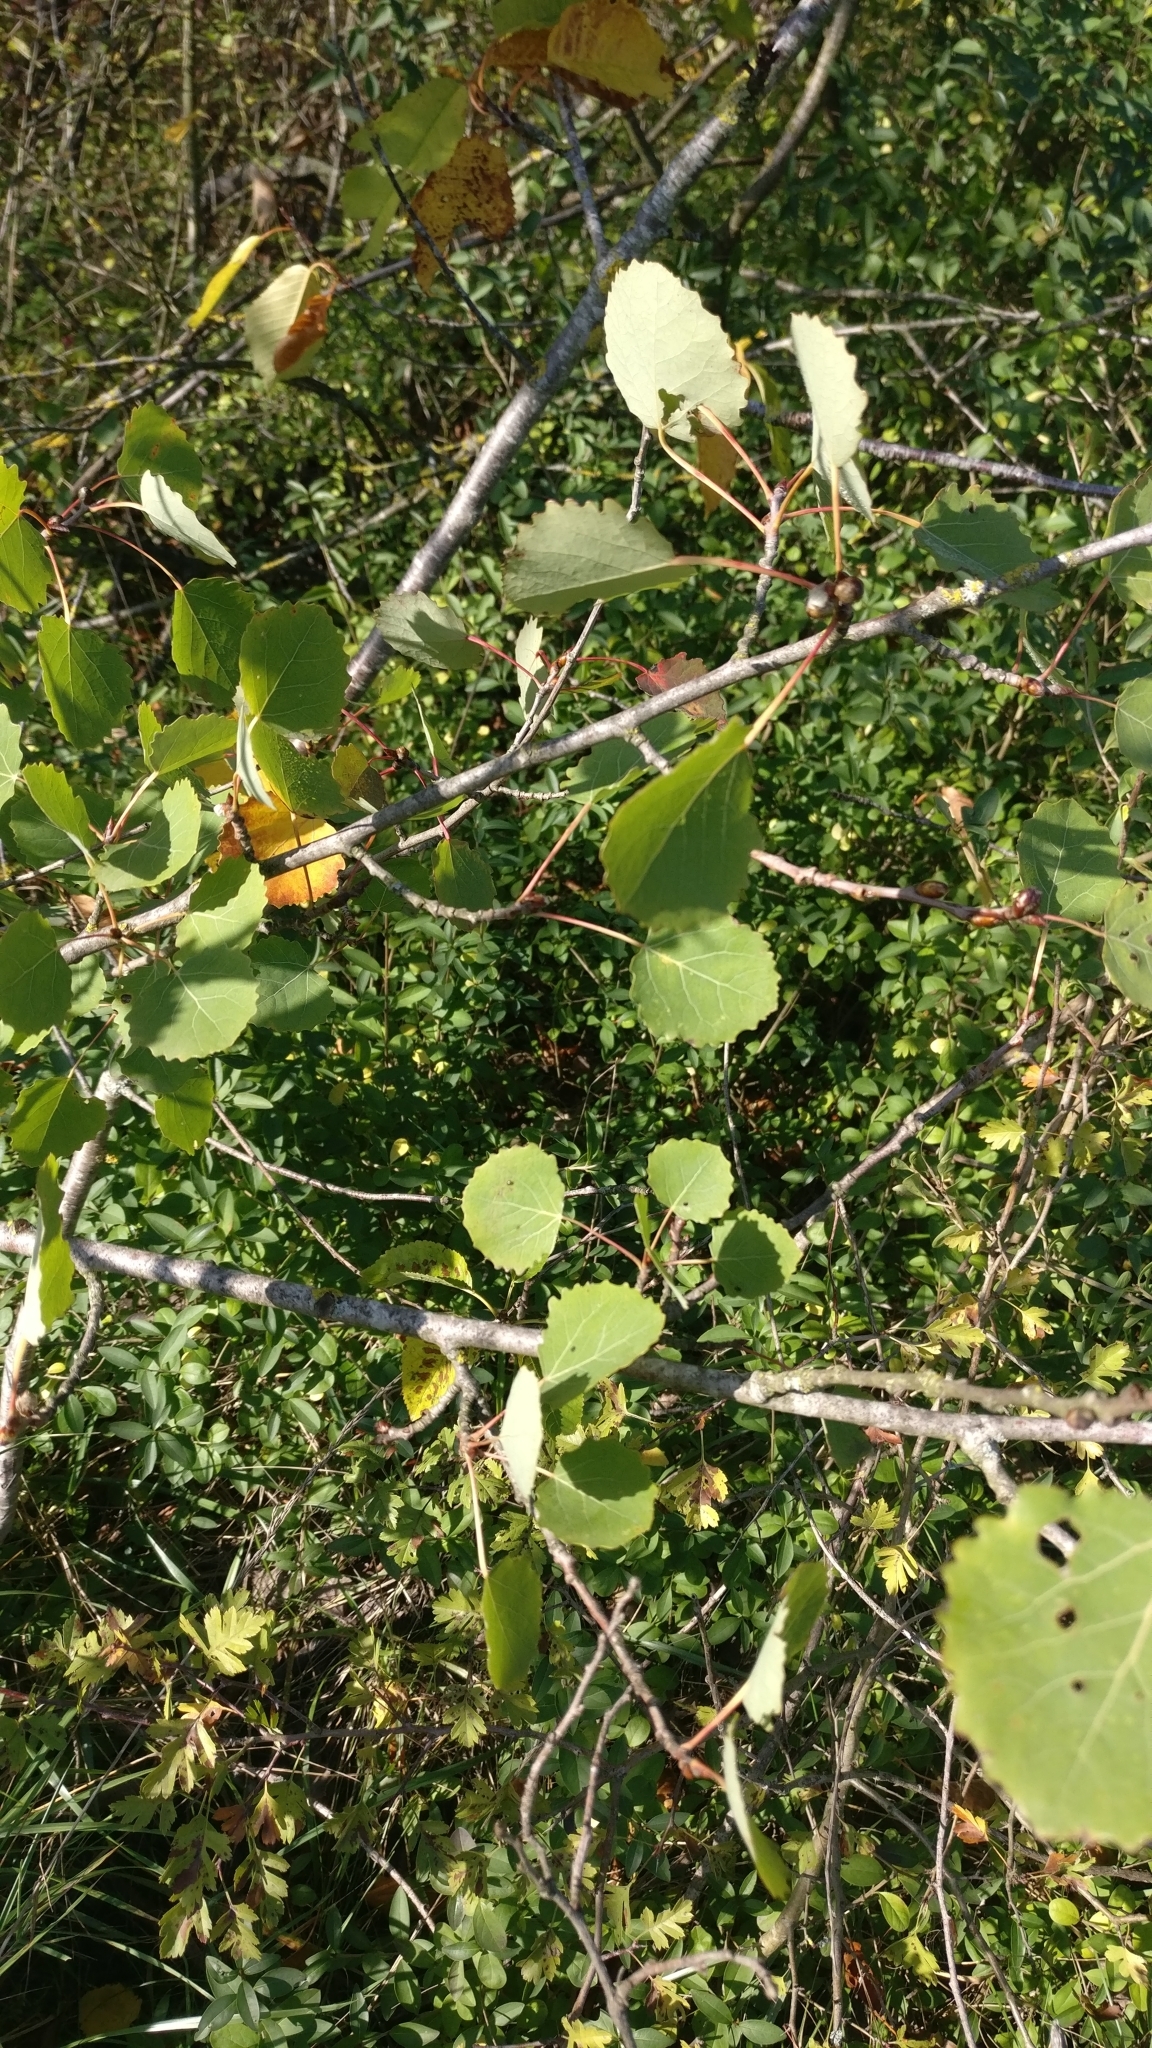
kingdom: Plantae
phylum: Tracheophyta
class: Magnoliopsida
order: Malpighiales
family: Salicaceae
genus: Populus
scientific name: Populus tremula
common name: European aspen
